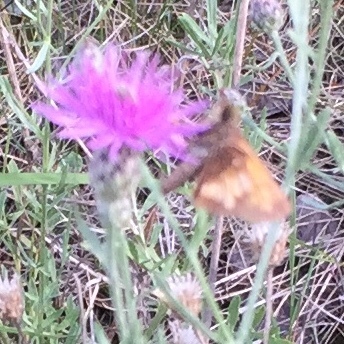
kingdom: Animalia
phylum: Arthropoda
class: Insecta
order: Lepidoptera
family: Hesperiidae
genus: Lon
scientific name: Lon hobomok
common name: Hobomok skipper
